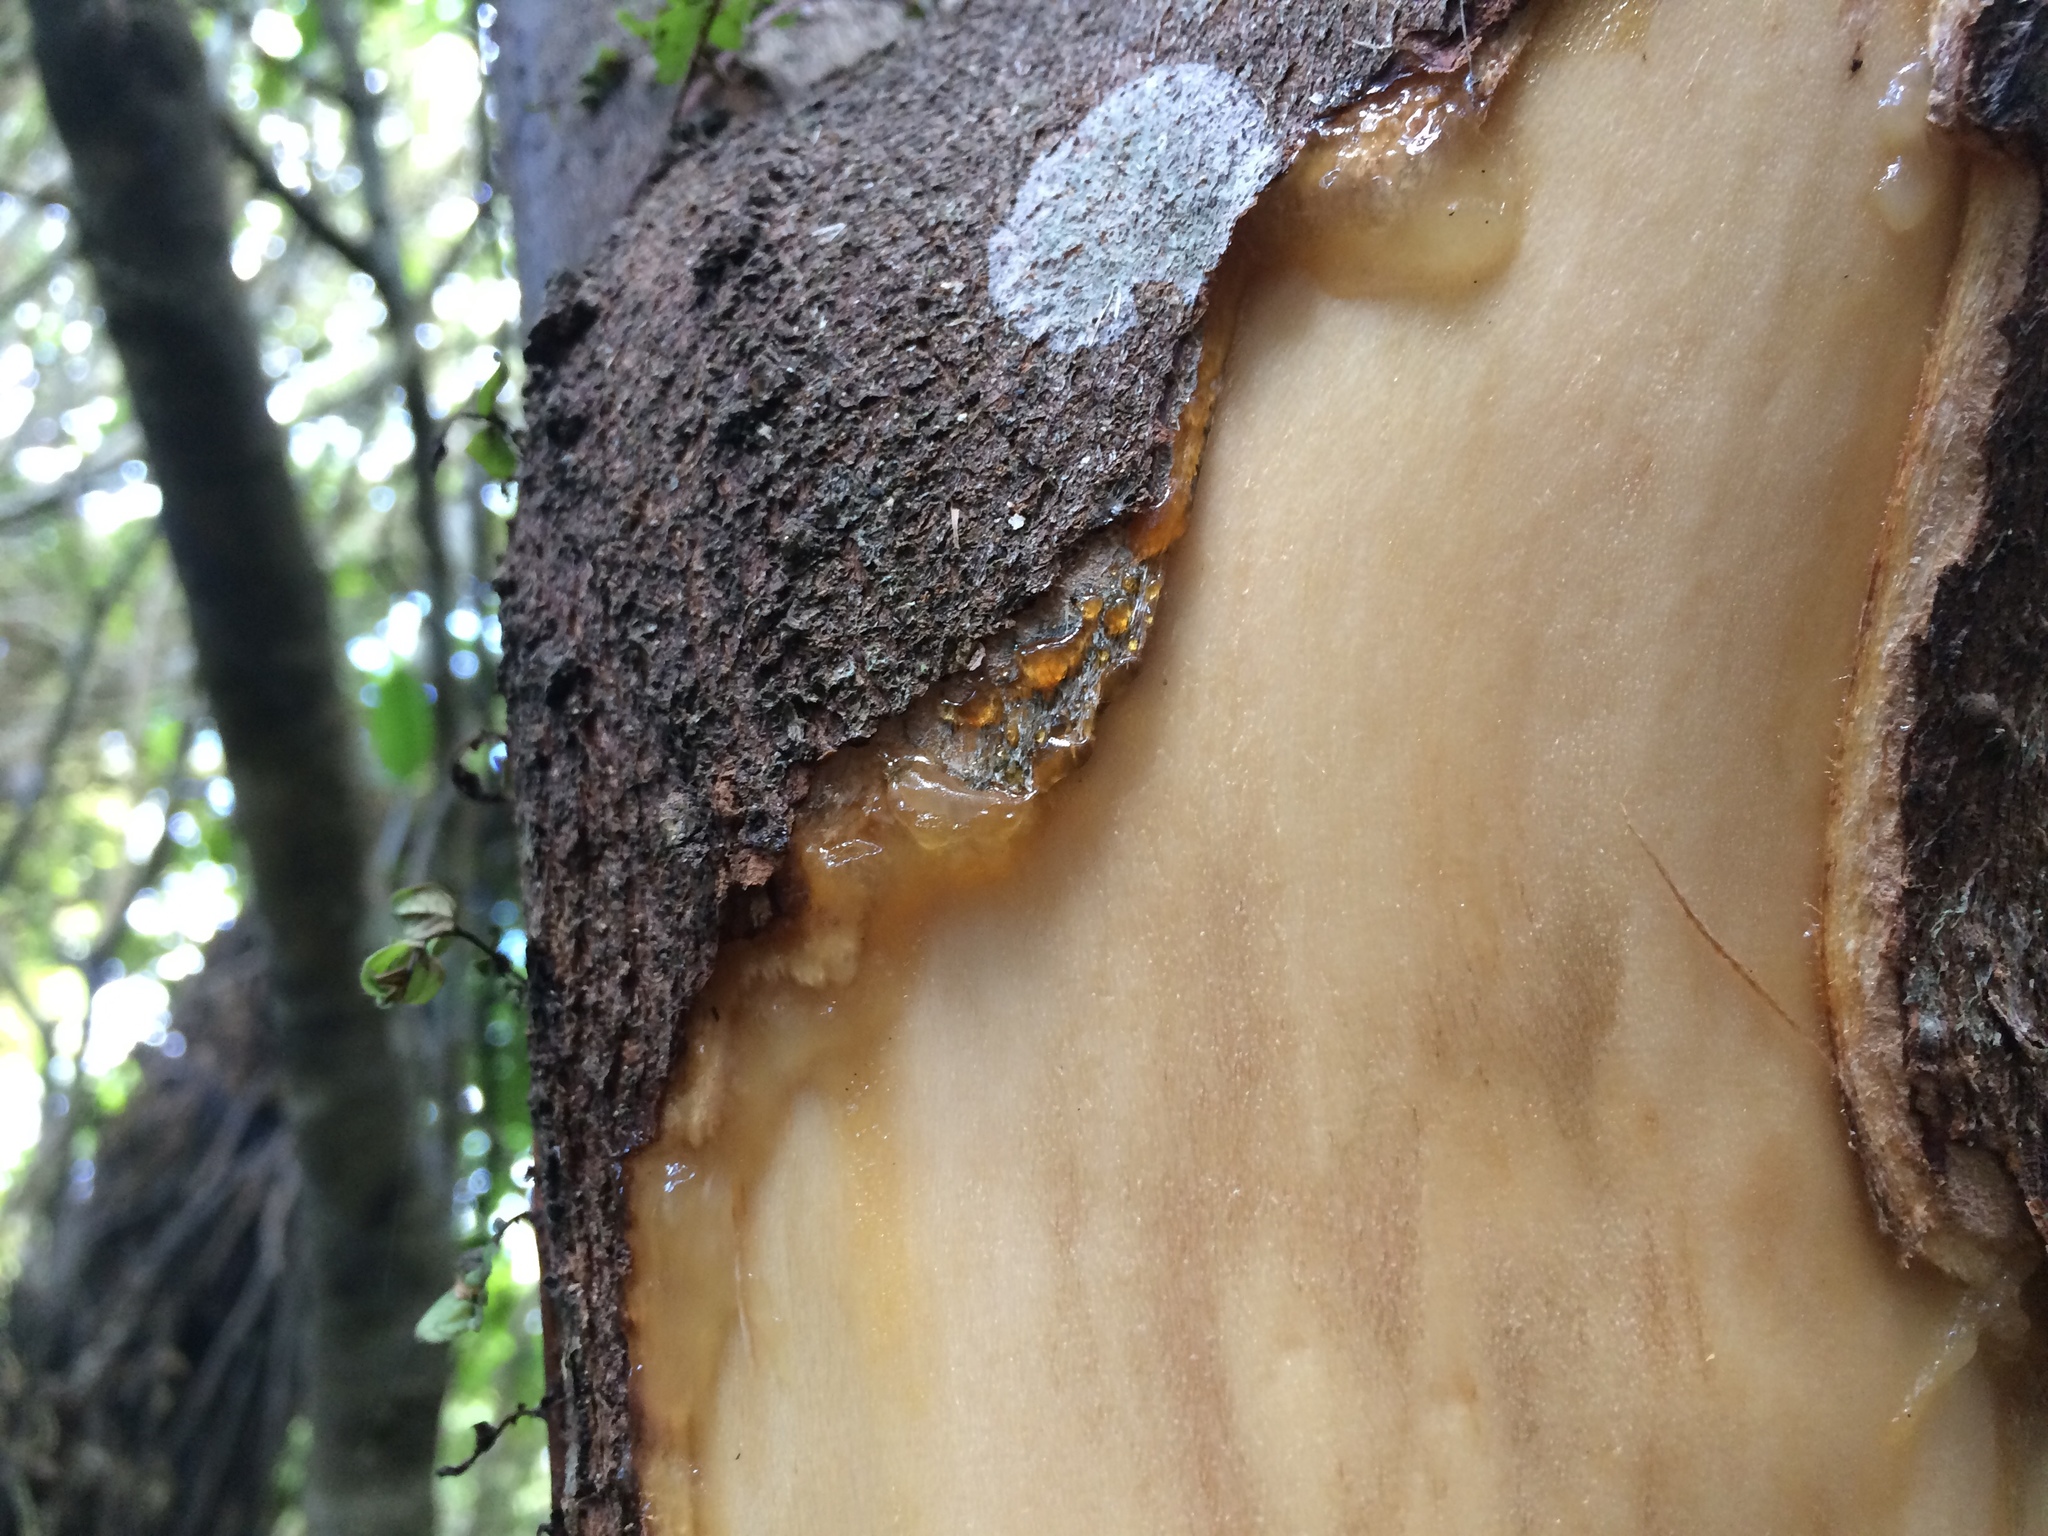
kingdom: Animalia
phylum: Chordata
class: Mammalia
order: Artiodactyla
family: Cervidae
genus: Cervus
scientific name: Cervus elaphus
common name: Red deer
